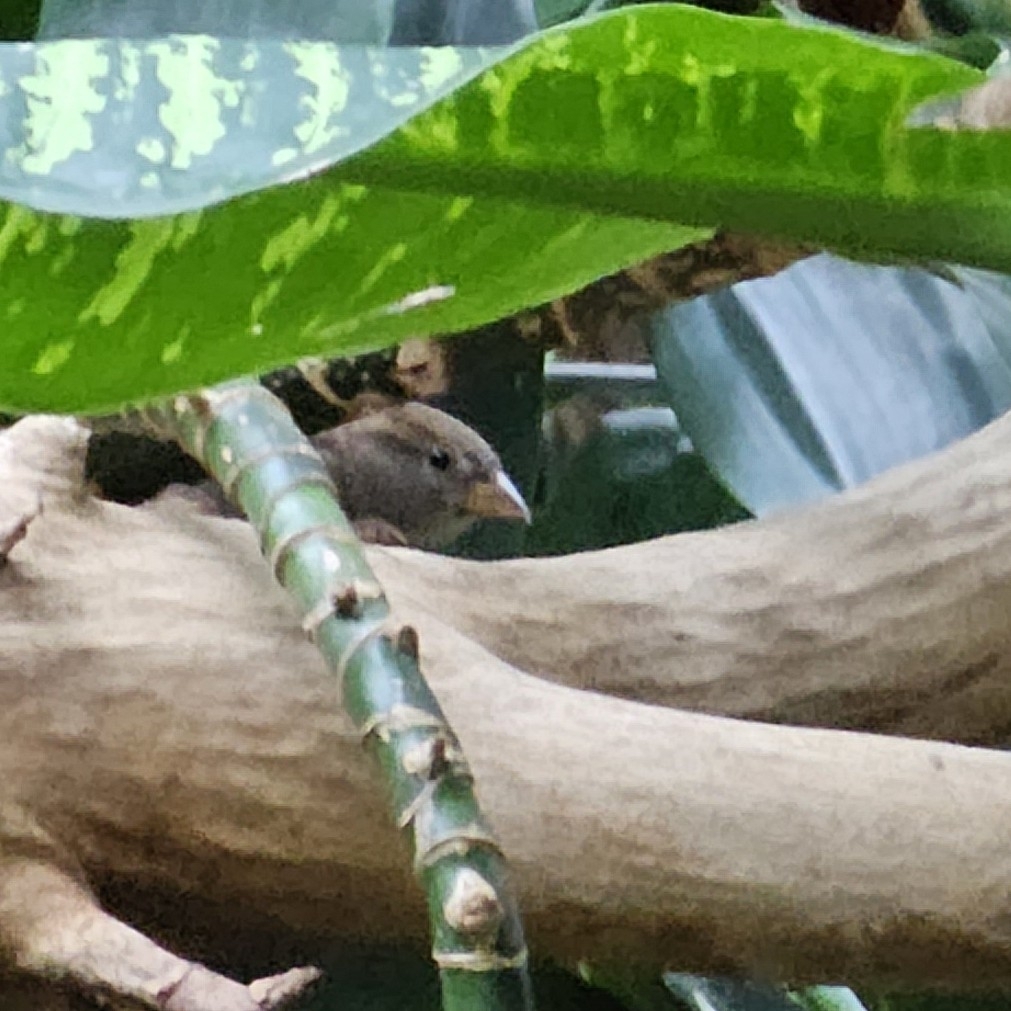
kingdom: Animalia
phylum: Chordata
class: Aves
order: Passeriformes
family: Passeridae
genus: Passer
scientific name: Passer domesticus
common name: House sparrow
